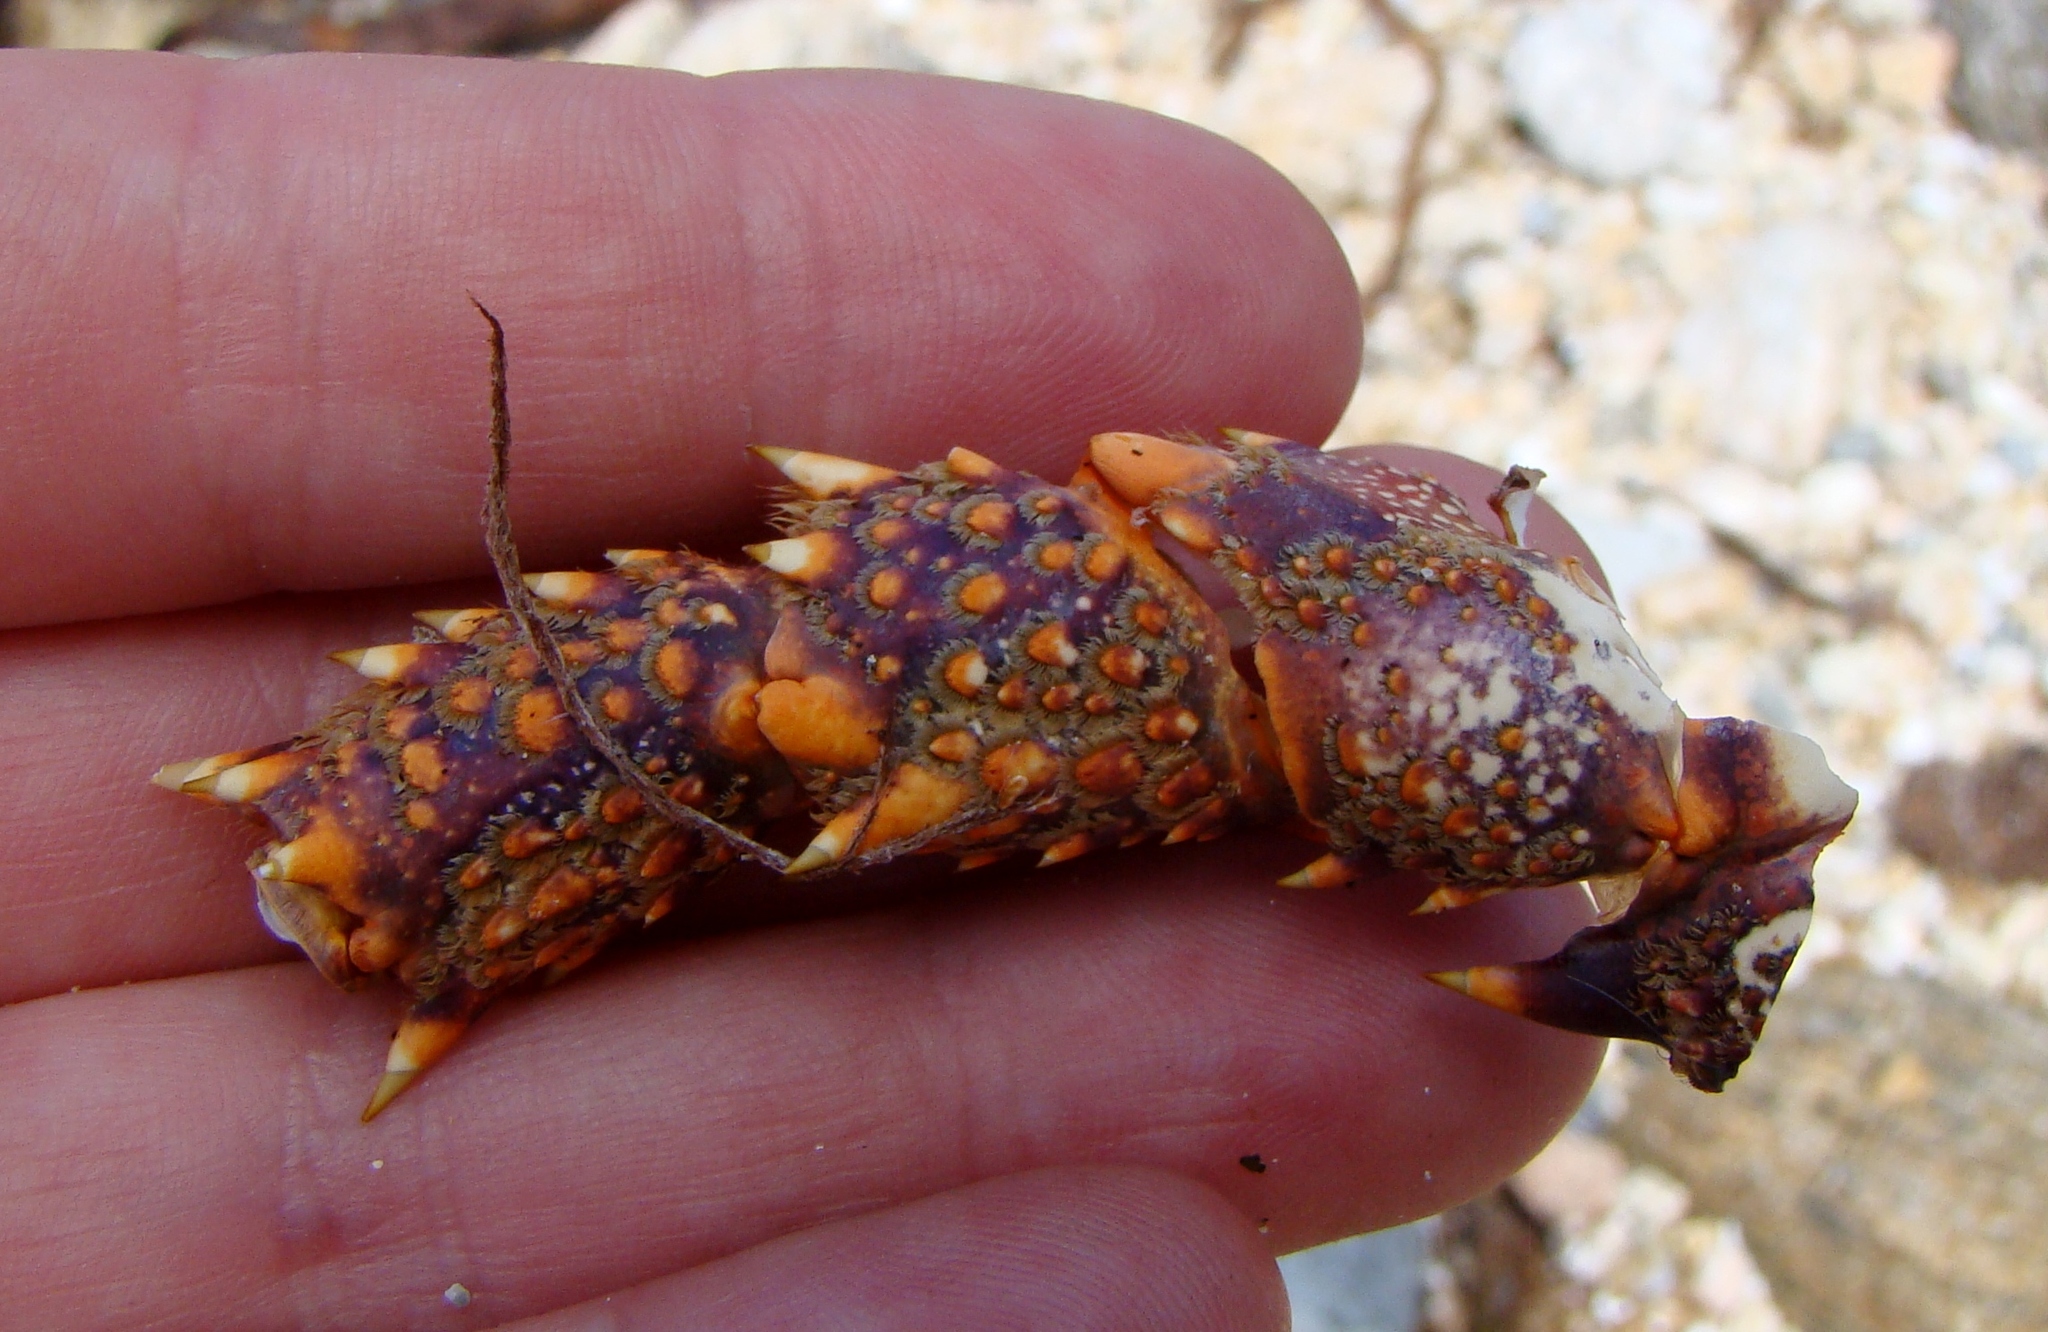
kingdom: Animalia
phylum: Arthropoda
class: Malacostraca
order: Decapoda
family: Palinuridae
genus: Jasus
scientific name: Jasus edwardsii
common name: Red rock lobster
